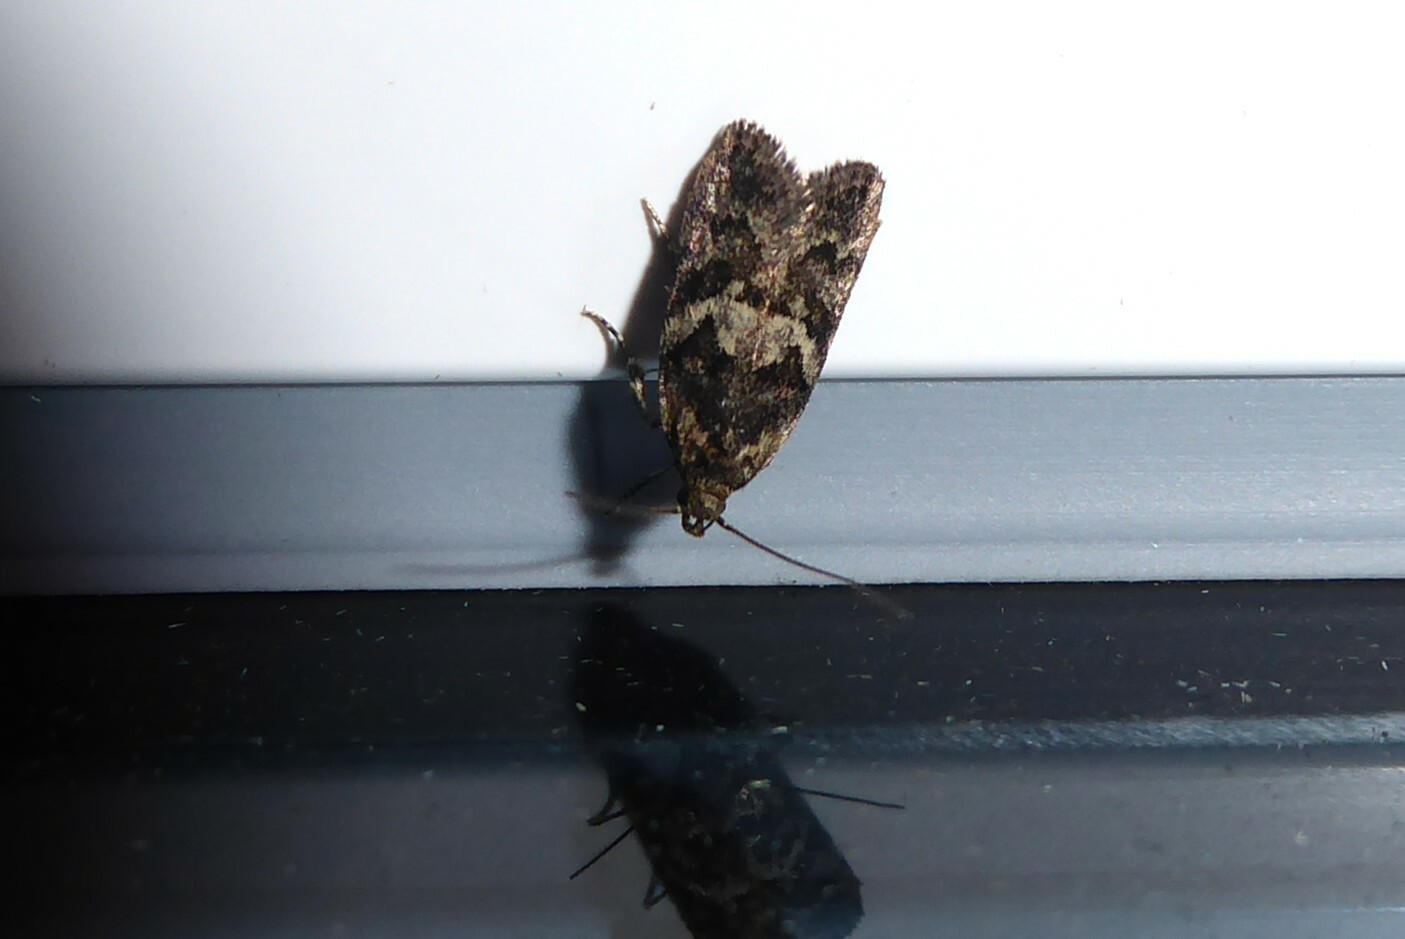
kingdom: Animalia
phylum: Arthropoda
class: Insecta
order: Lepidoptera
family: Oecophoridae
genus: Trachypepla
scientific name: Trachypepla anastrella
